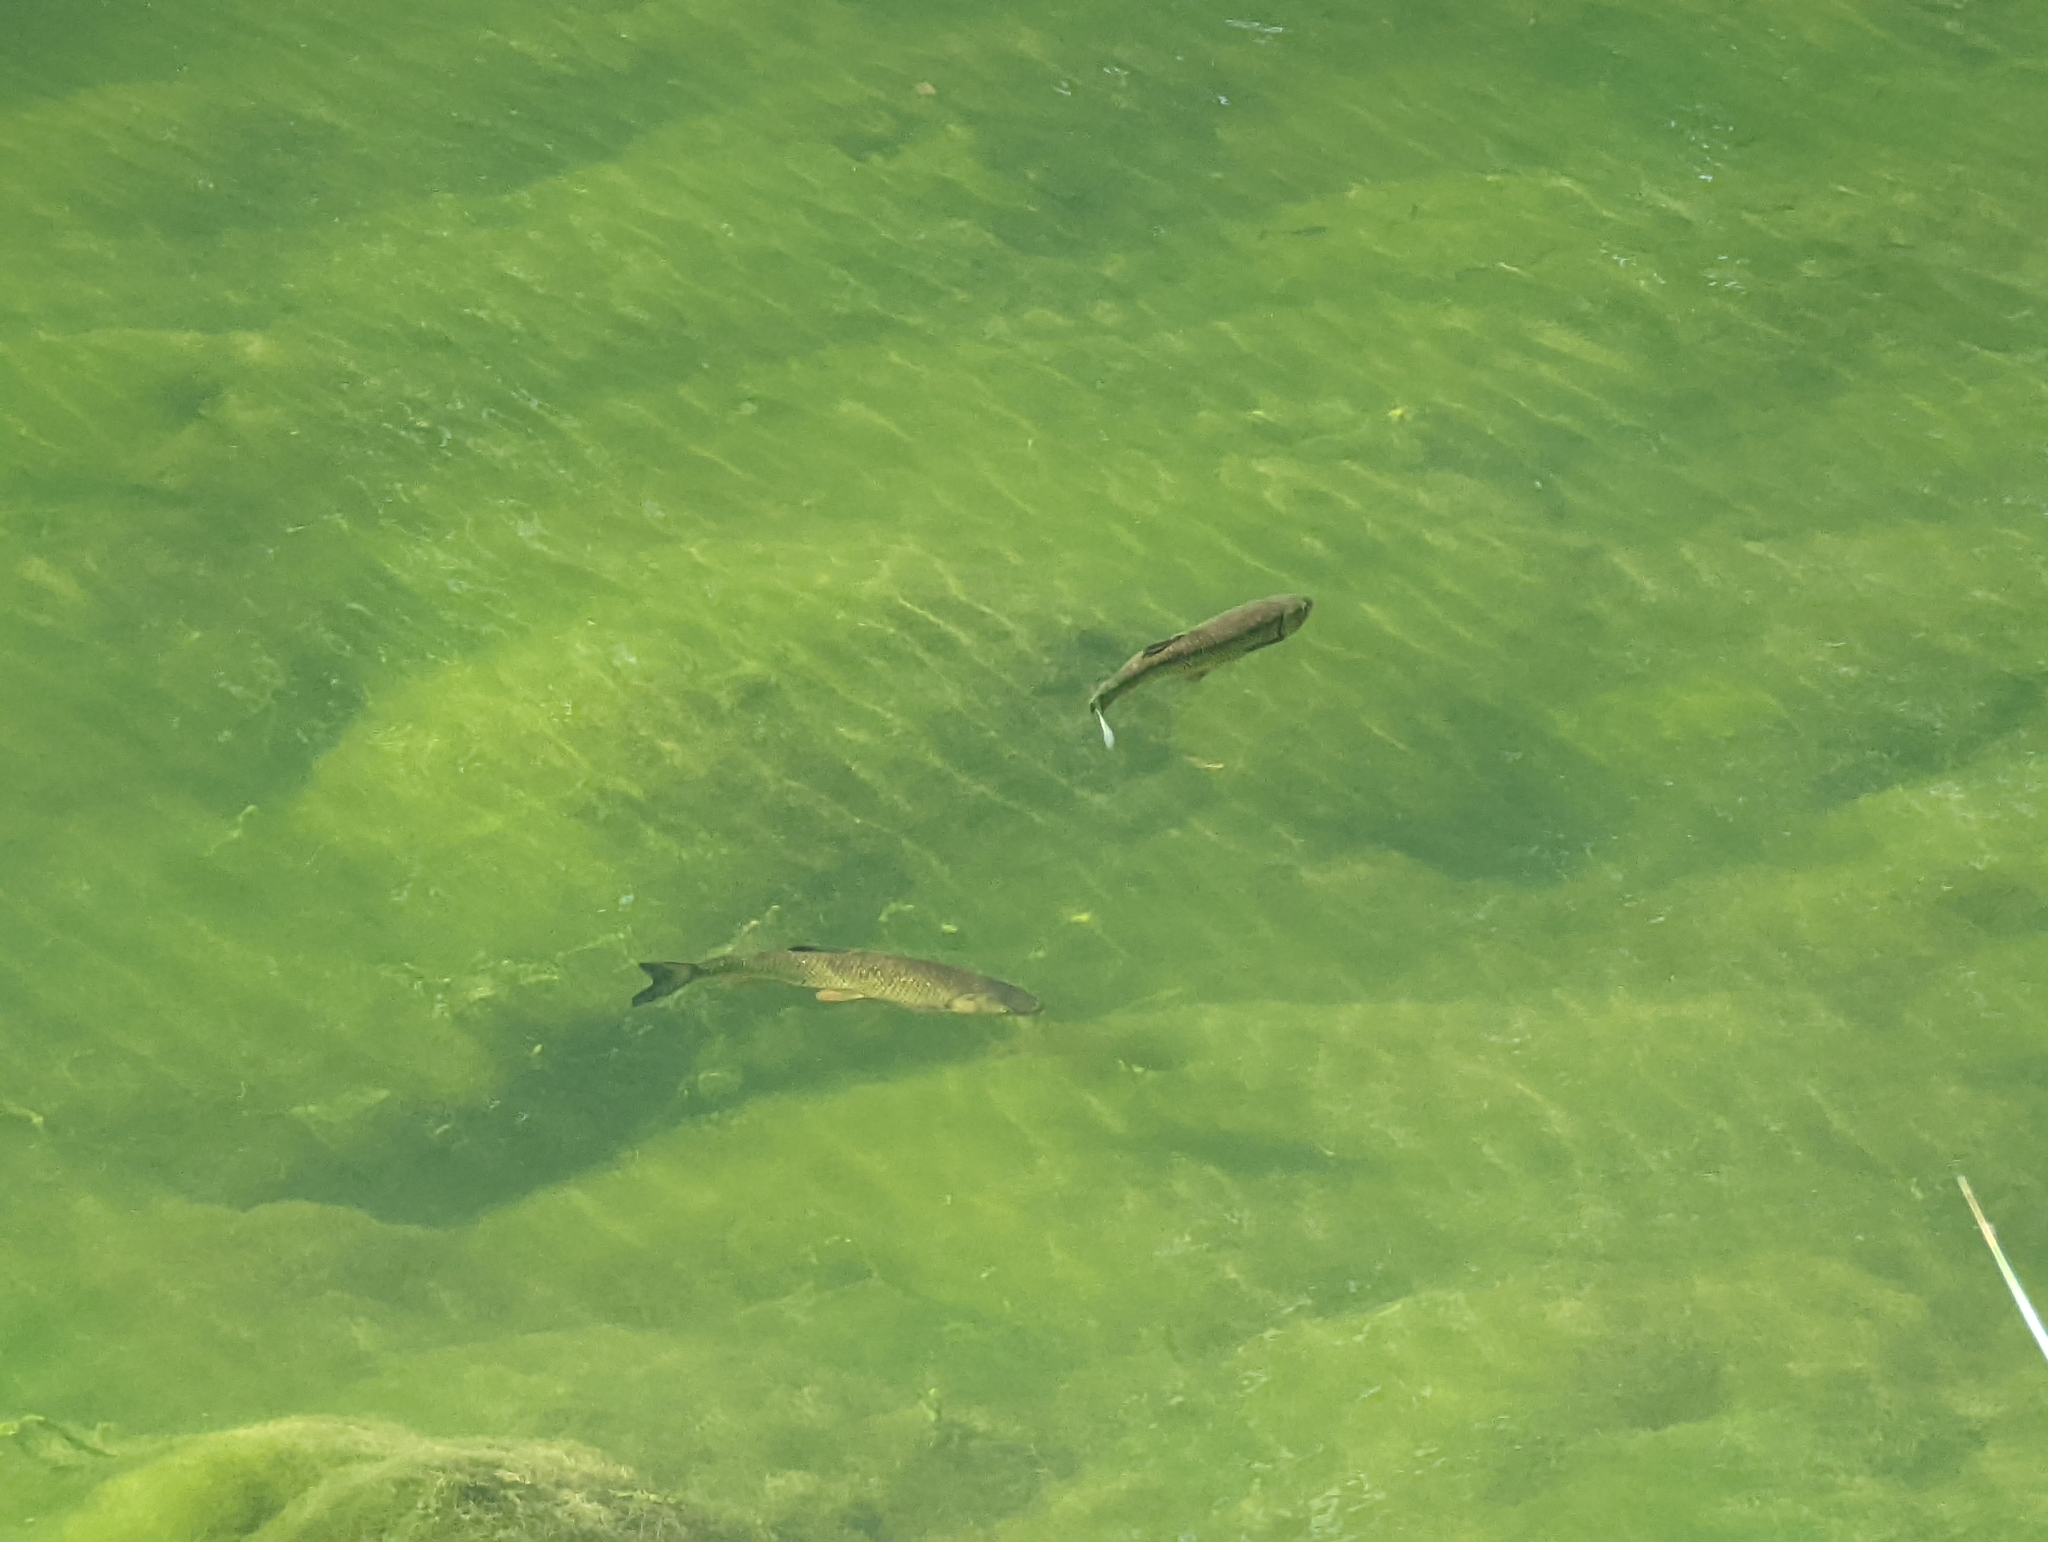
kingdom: Animalia
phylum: Chordata
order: Cypriniformes
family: Cyprinidae
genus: Squalius
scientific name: Squalius cephalus
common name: Chub
